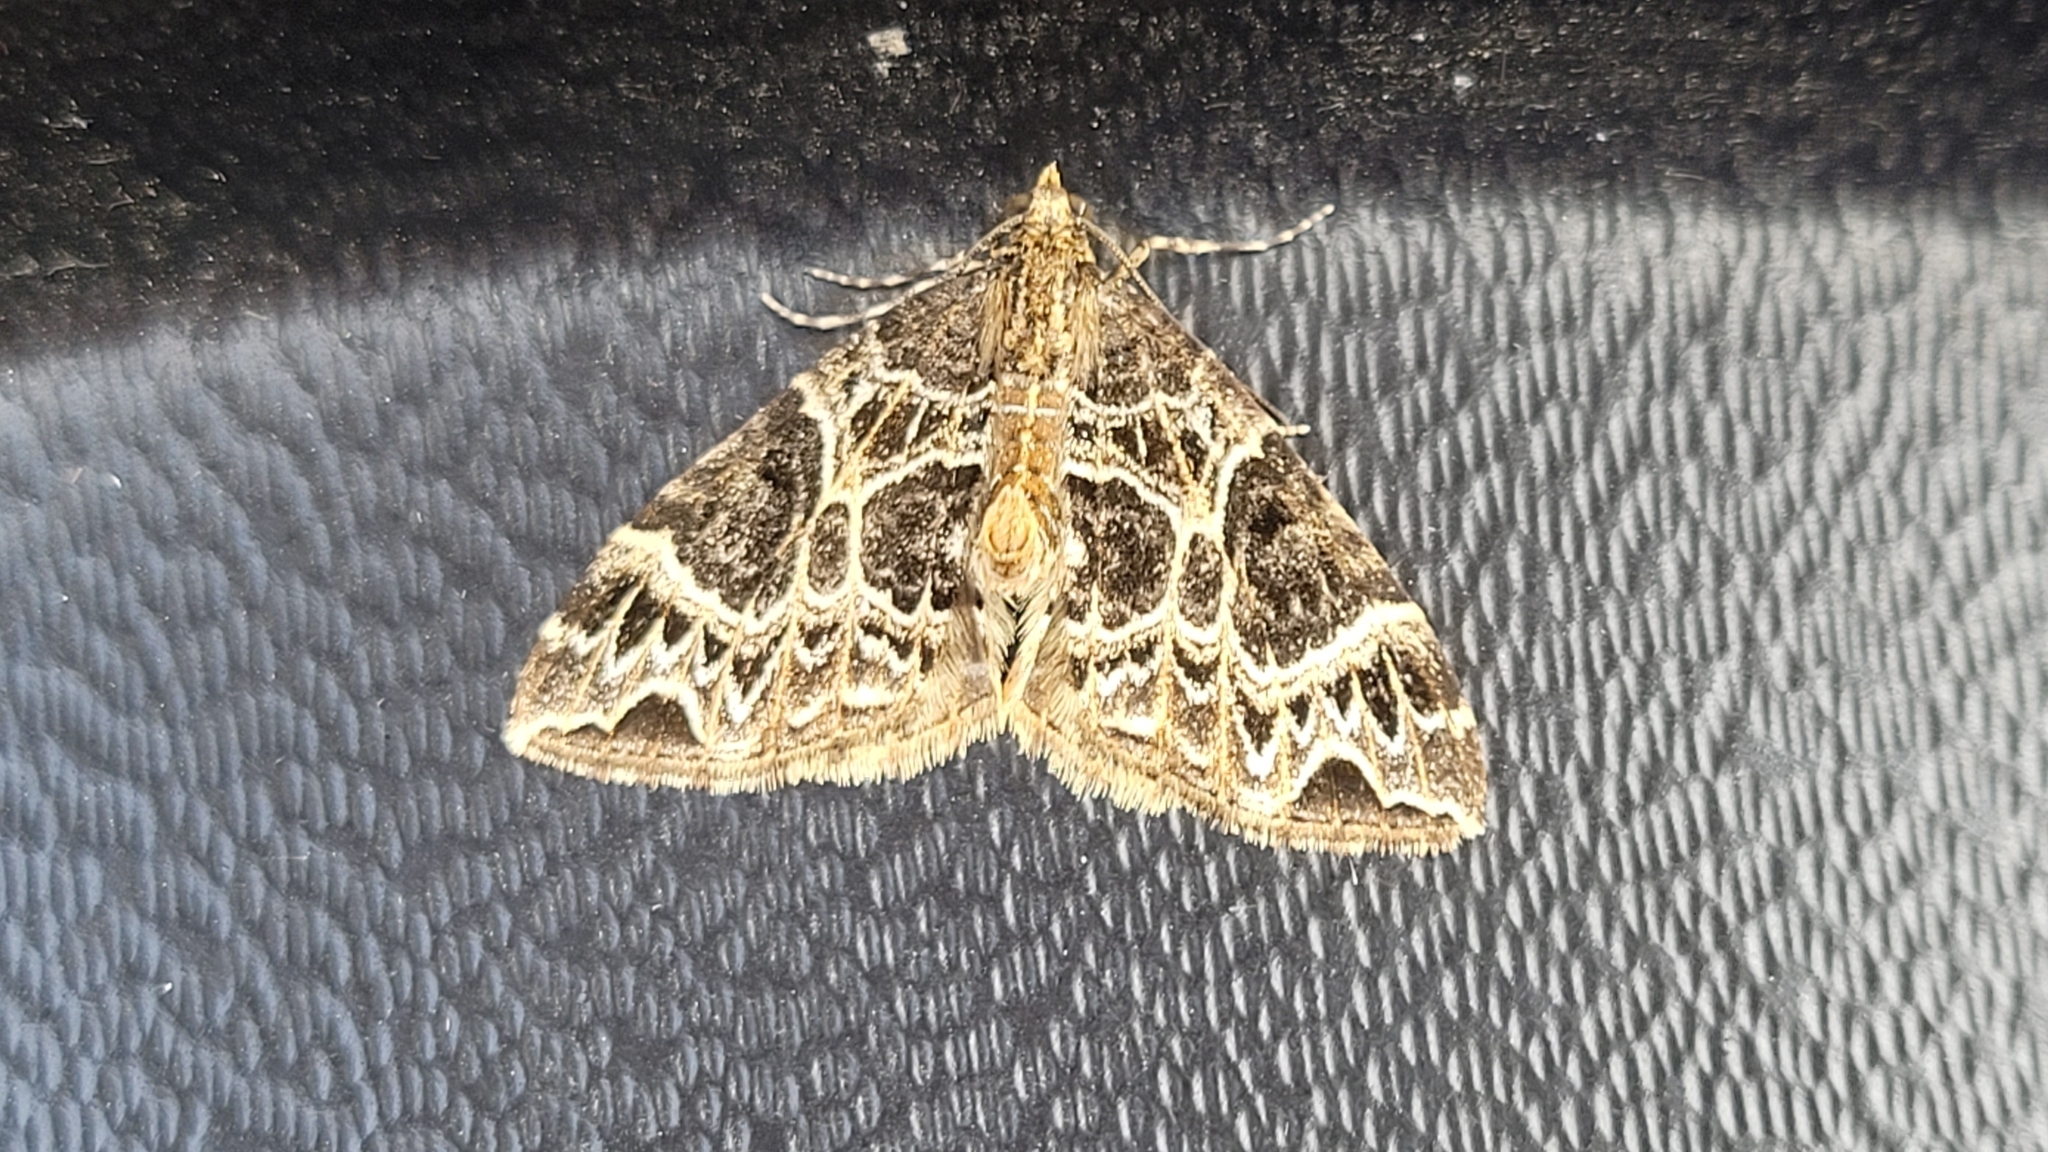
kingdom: Animalia
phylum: Arthropoda
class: Insecta
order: Lepidoptera
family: Geometridae
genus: Ecliptopera
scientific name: Ecliptopera silaceata
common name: Small phoenix
